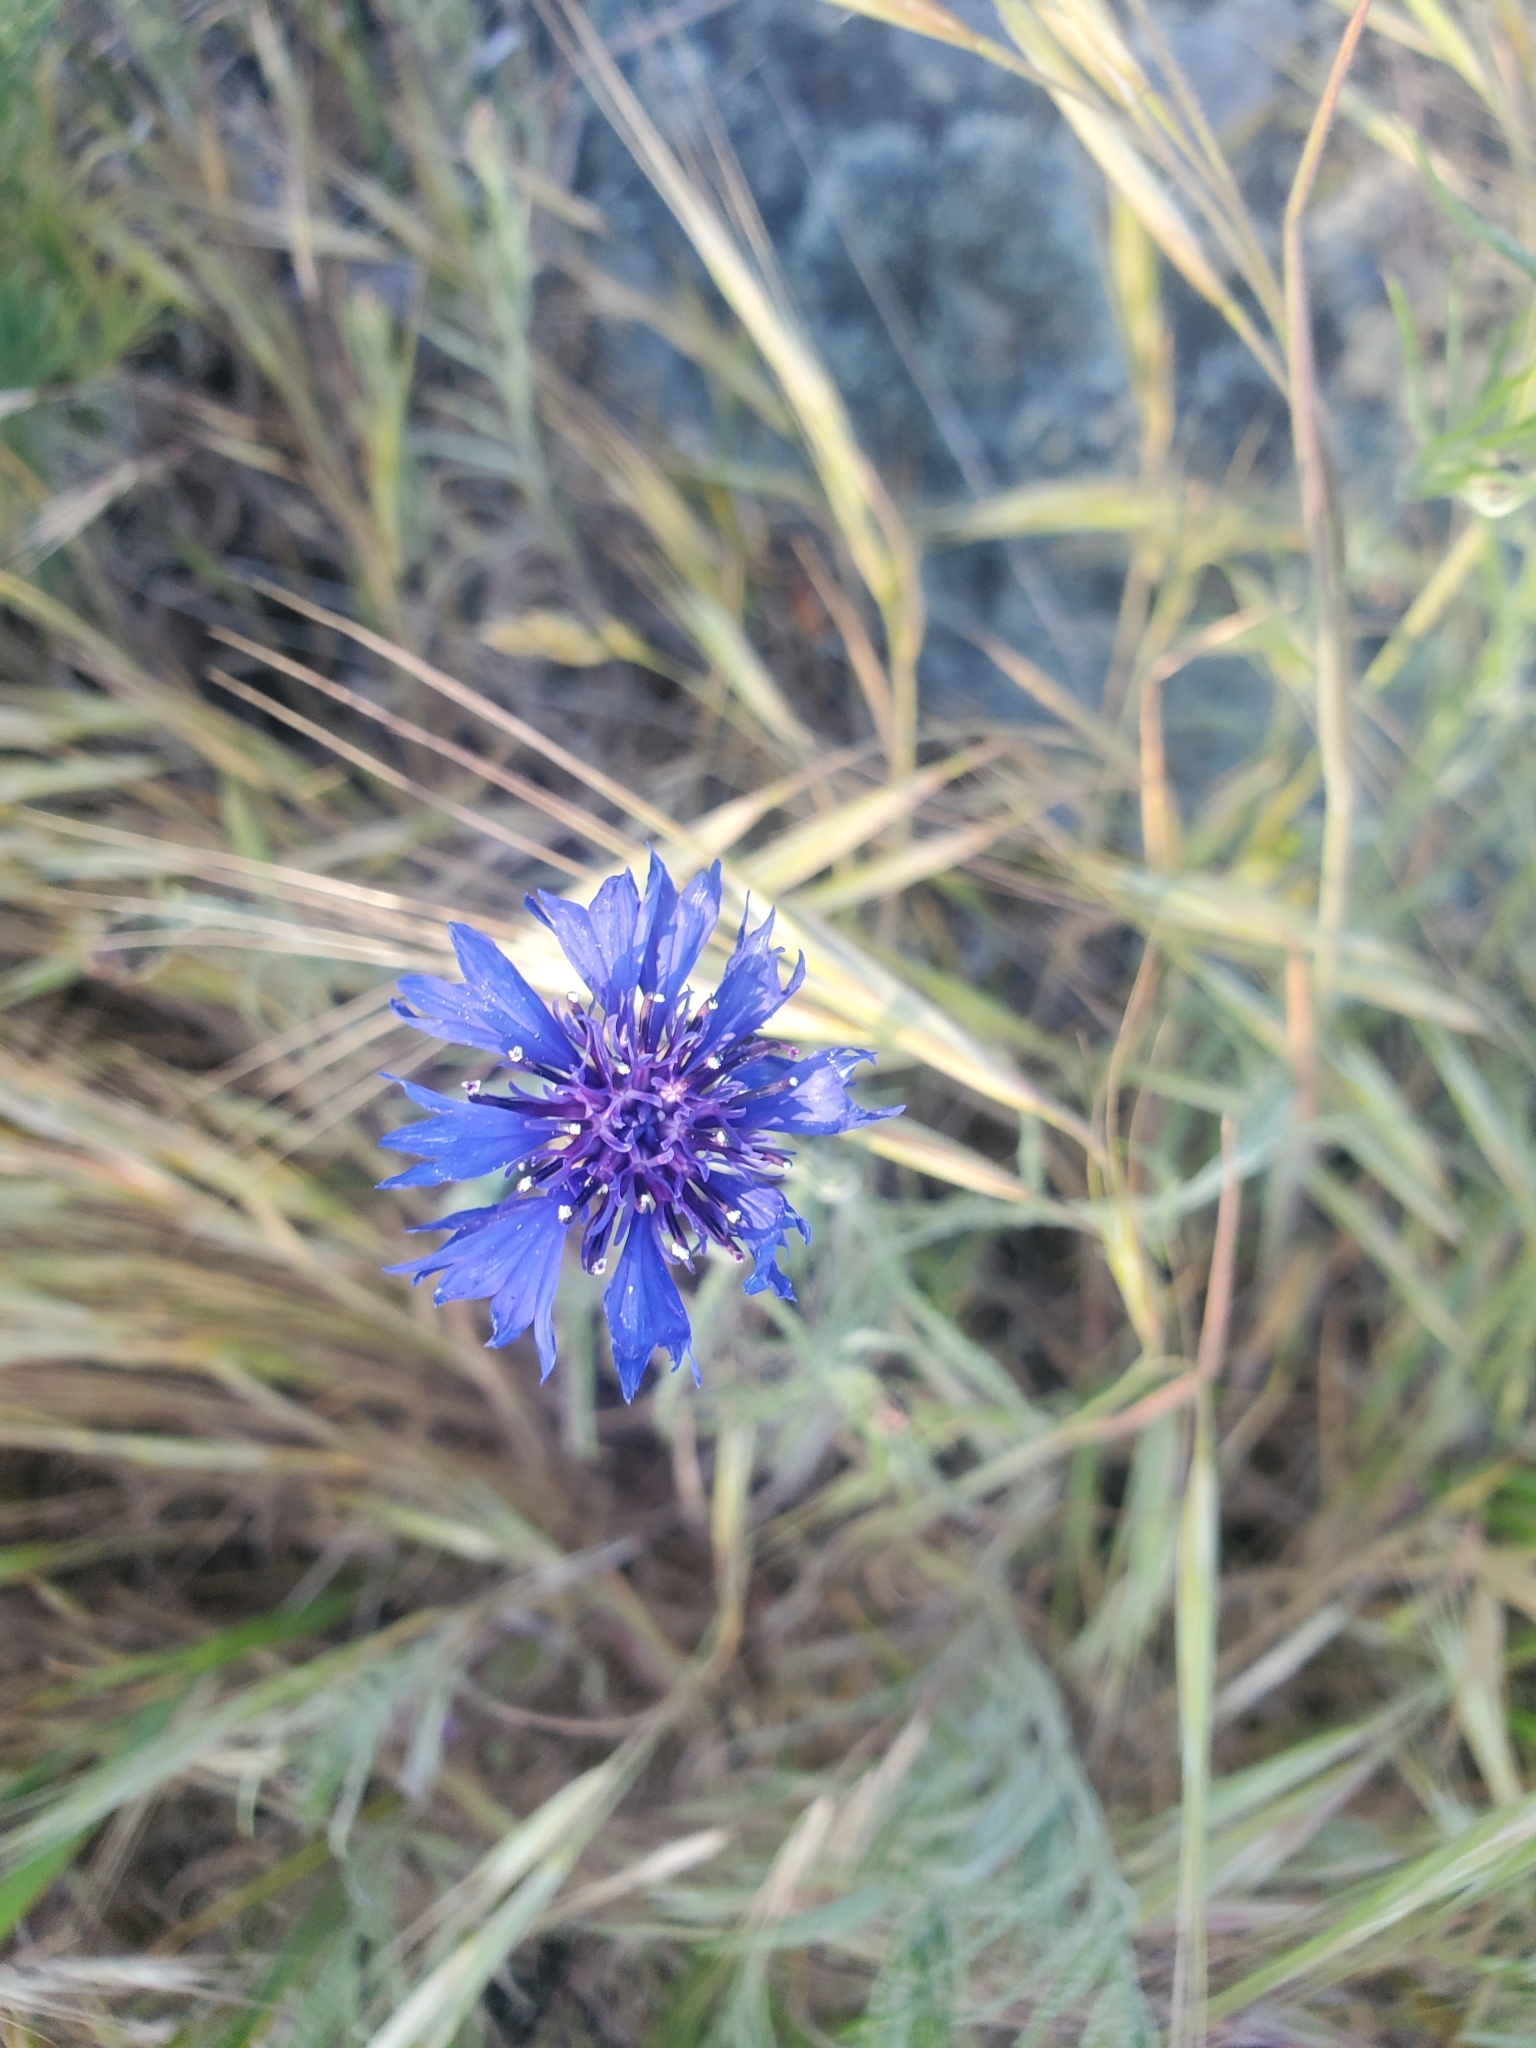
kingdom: Plantae
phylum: Tracheophyta
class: Magnoliopsida
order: Asterales
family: Asteraceae
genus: Centaurea
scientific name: Centaurea cyanus
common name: Cornflower
